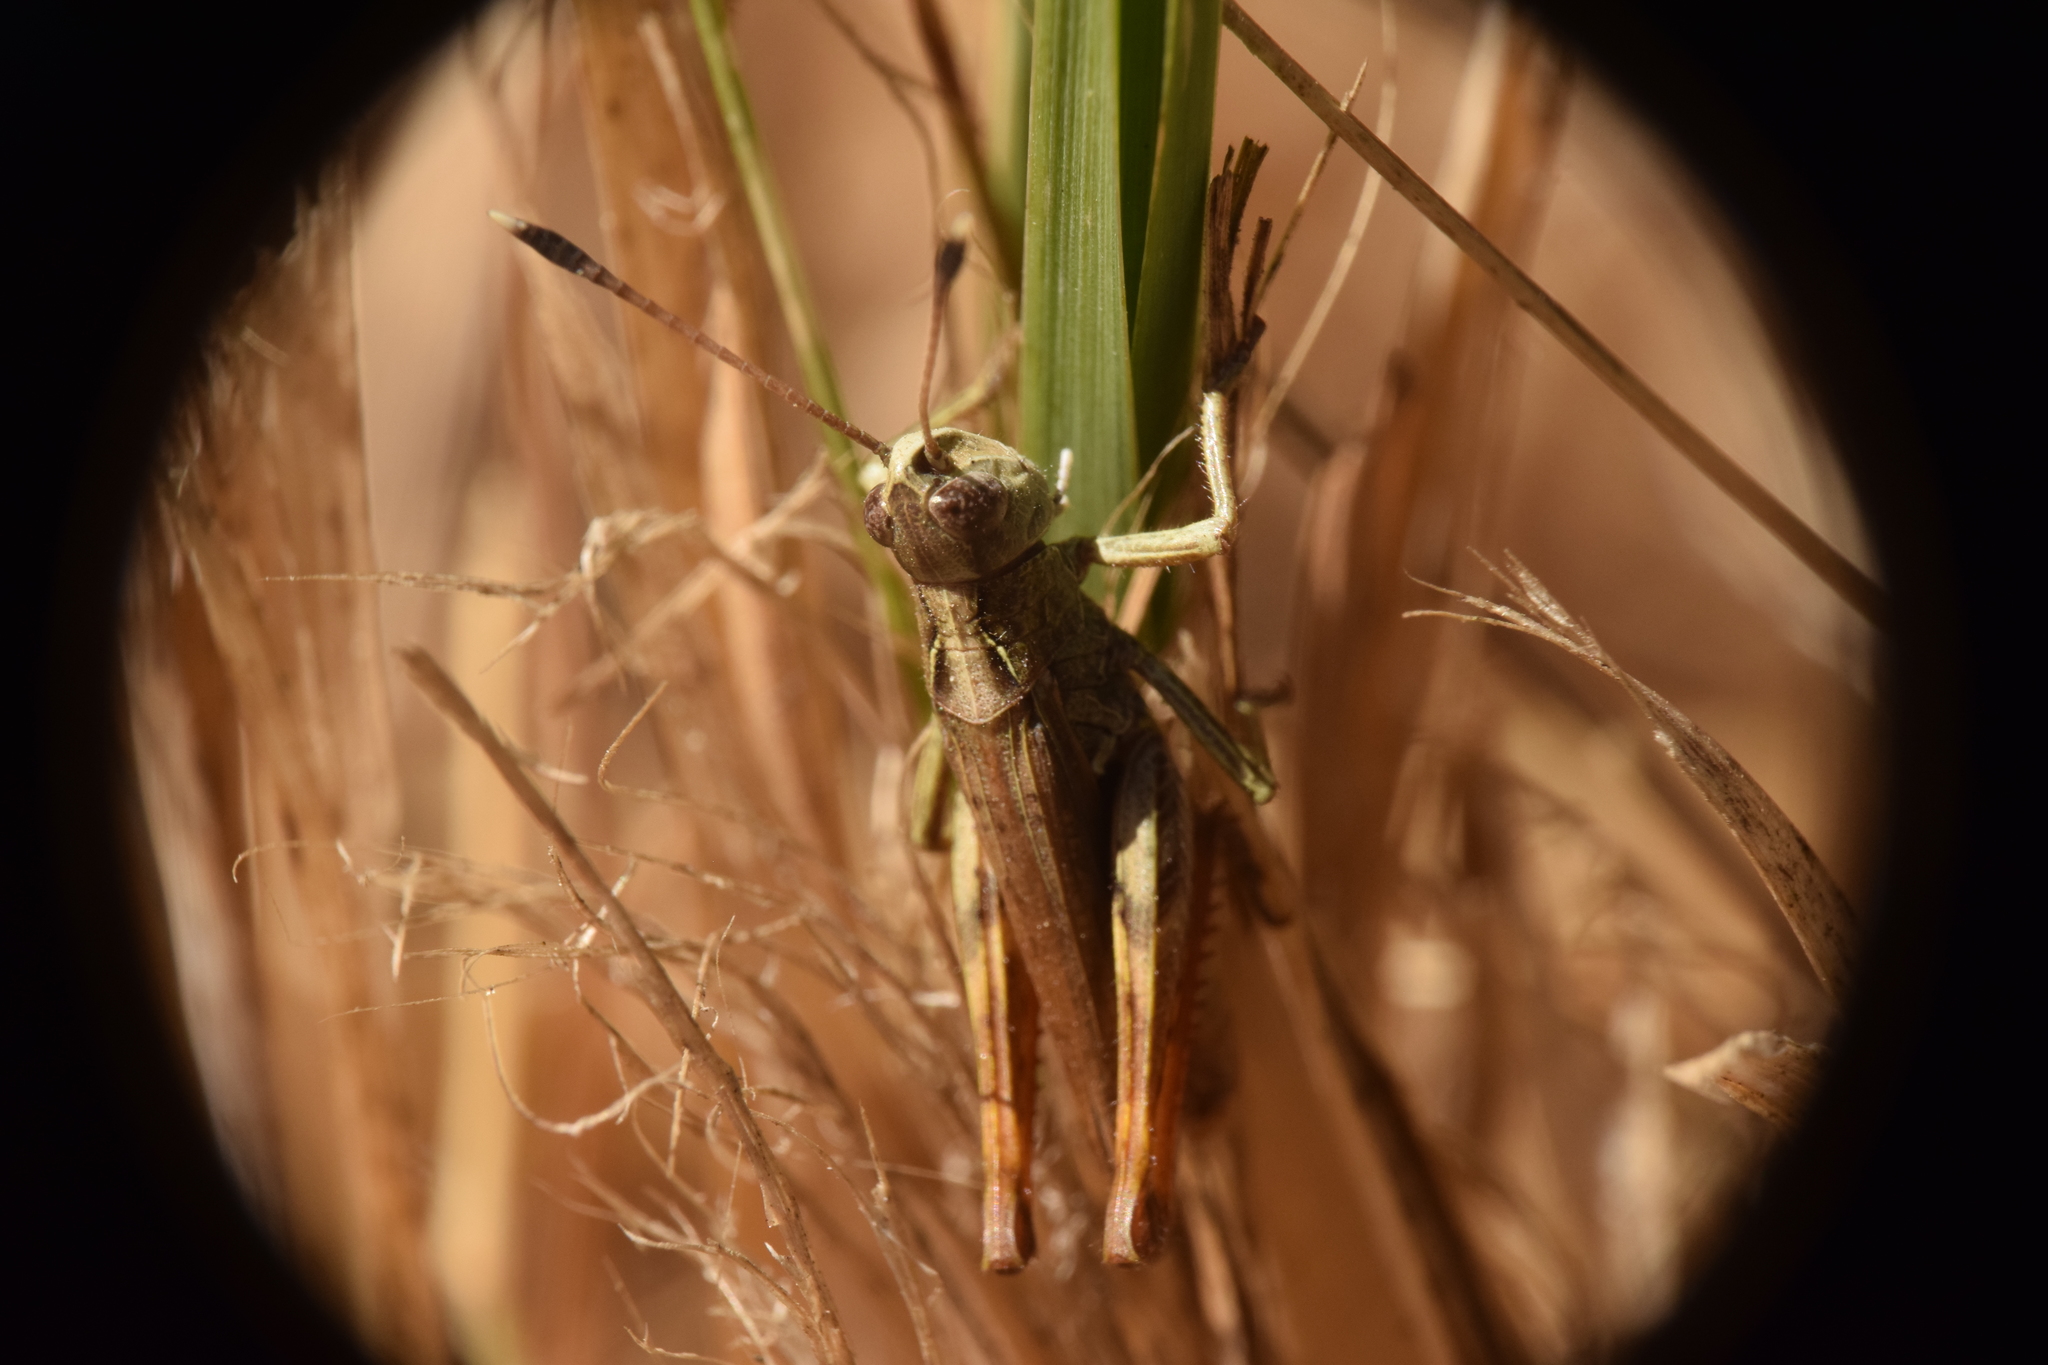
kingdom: Animalia
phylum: Arthropoda
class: Insecta
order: Orthoptera
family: Acrididae
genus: Gomphocerippus
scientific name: Gomphocerippus rufus
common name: Rufous grasshopper
